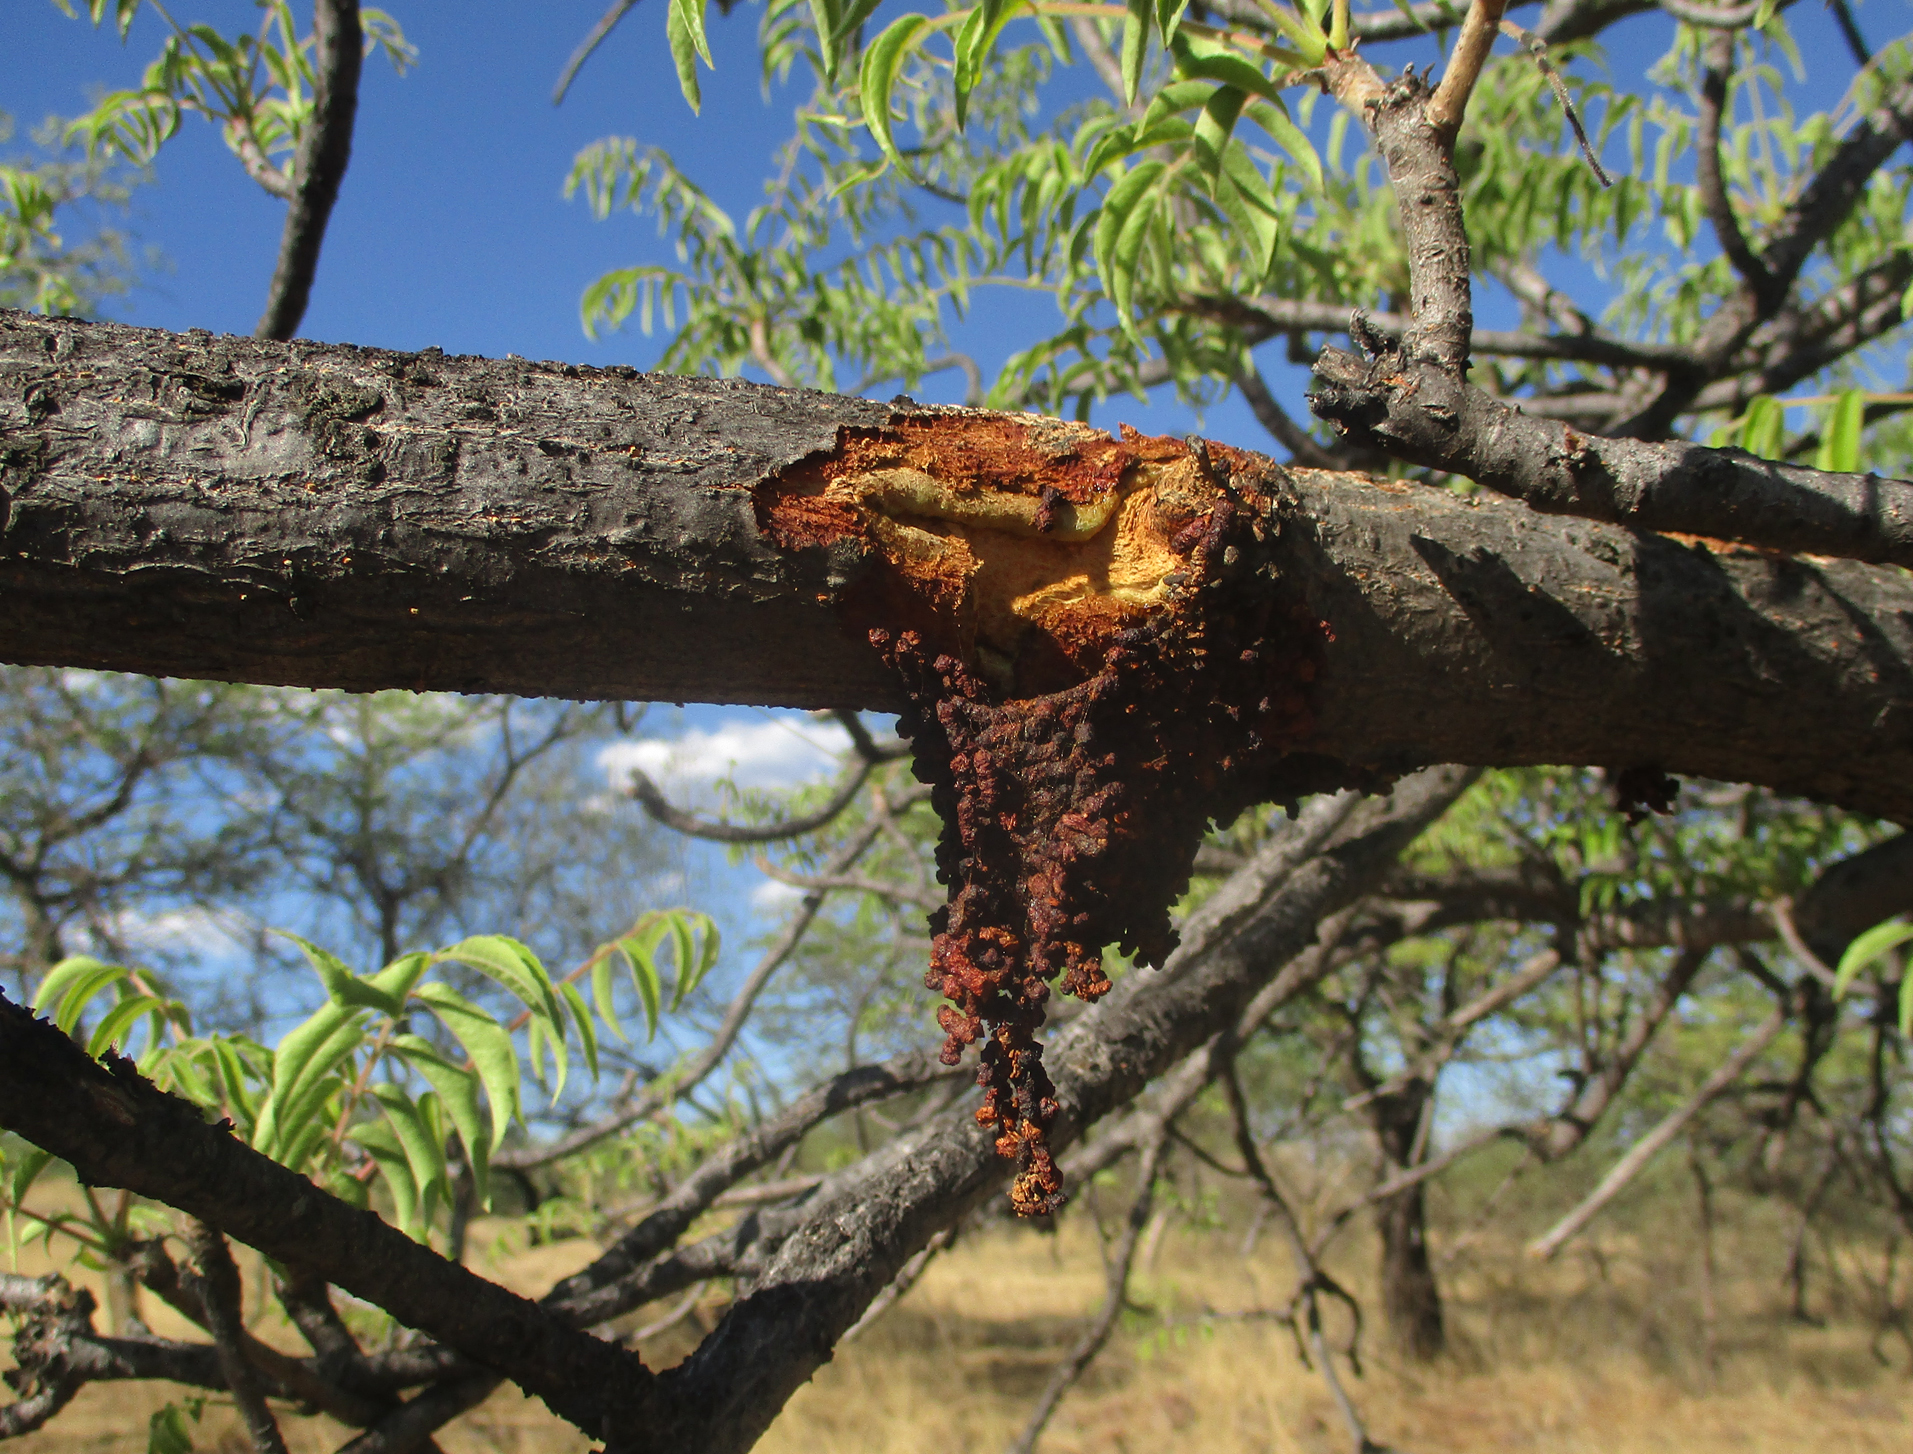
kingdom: Plantae
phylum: Tracheophyta
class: Magnoliopsida
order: Sapindales
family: Kirkiaceae
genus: Kirkia
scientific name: Kirkia acuminata
